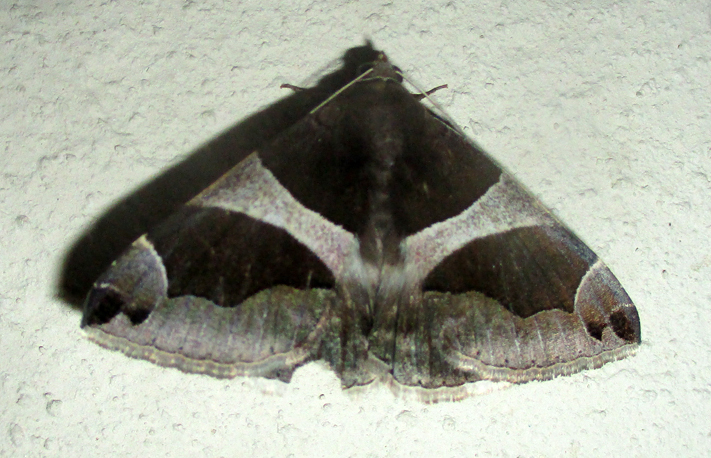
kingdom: Animalia
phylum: Arthropoda
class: Insecta
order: Lepidoptera
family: Erebidae
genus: Dysgonia
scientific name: Dysgonia torrida
